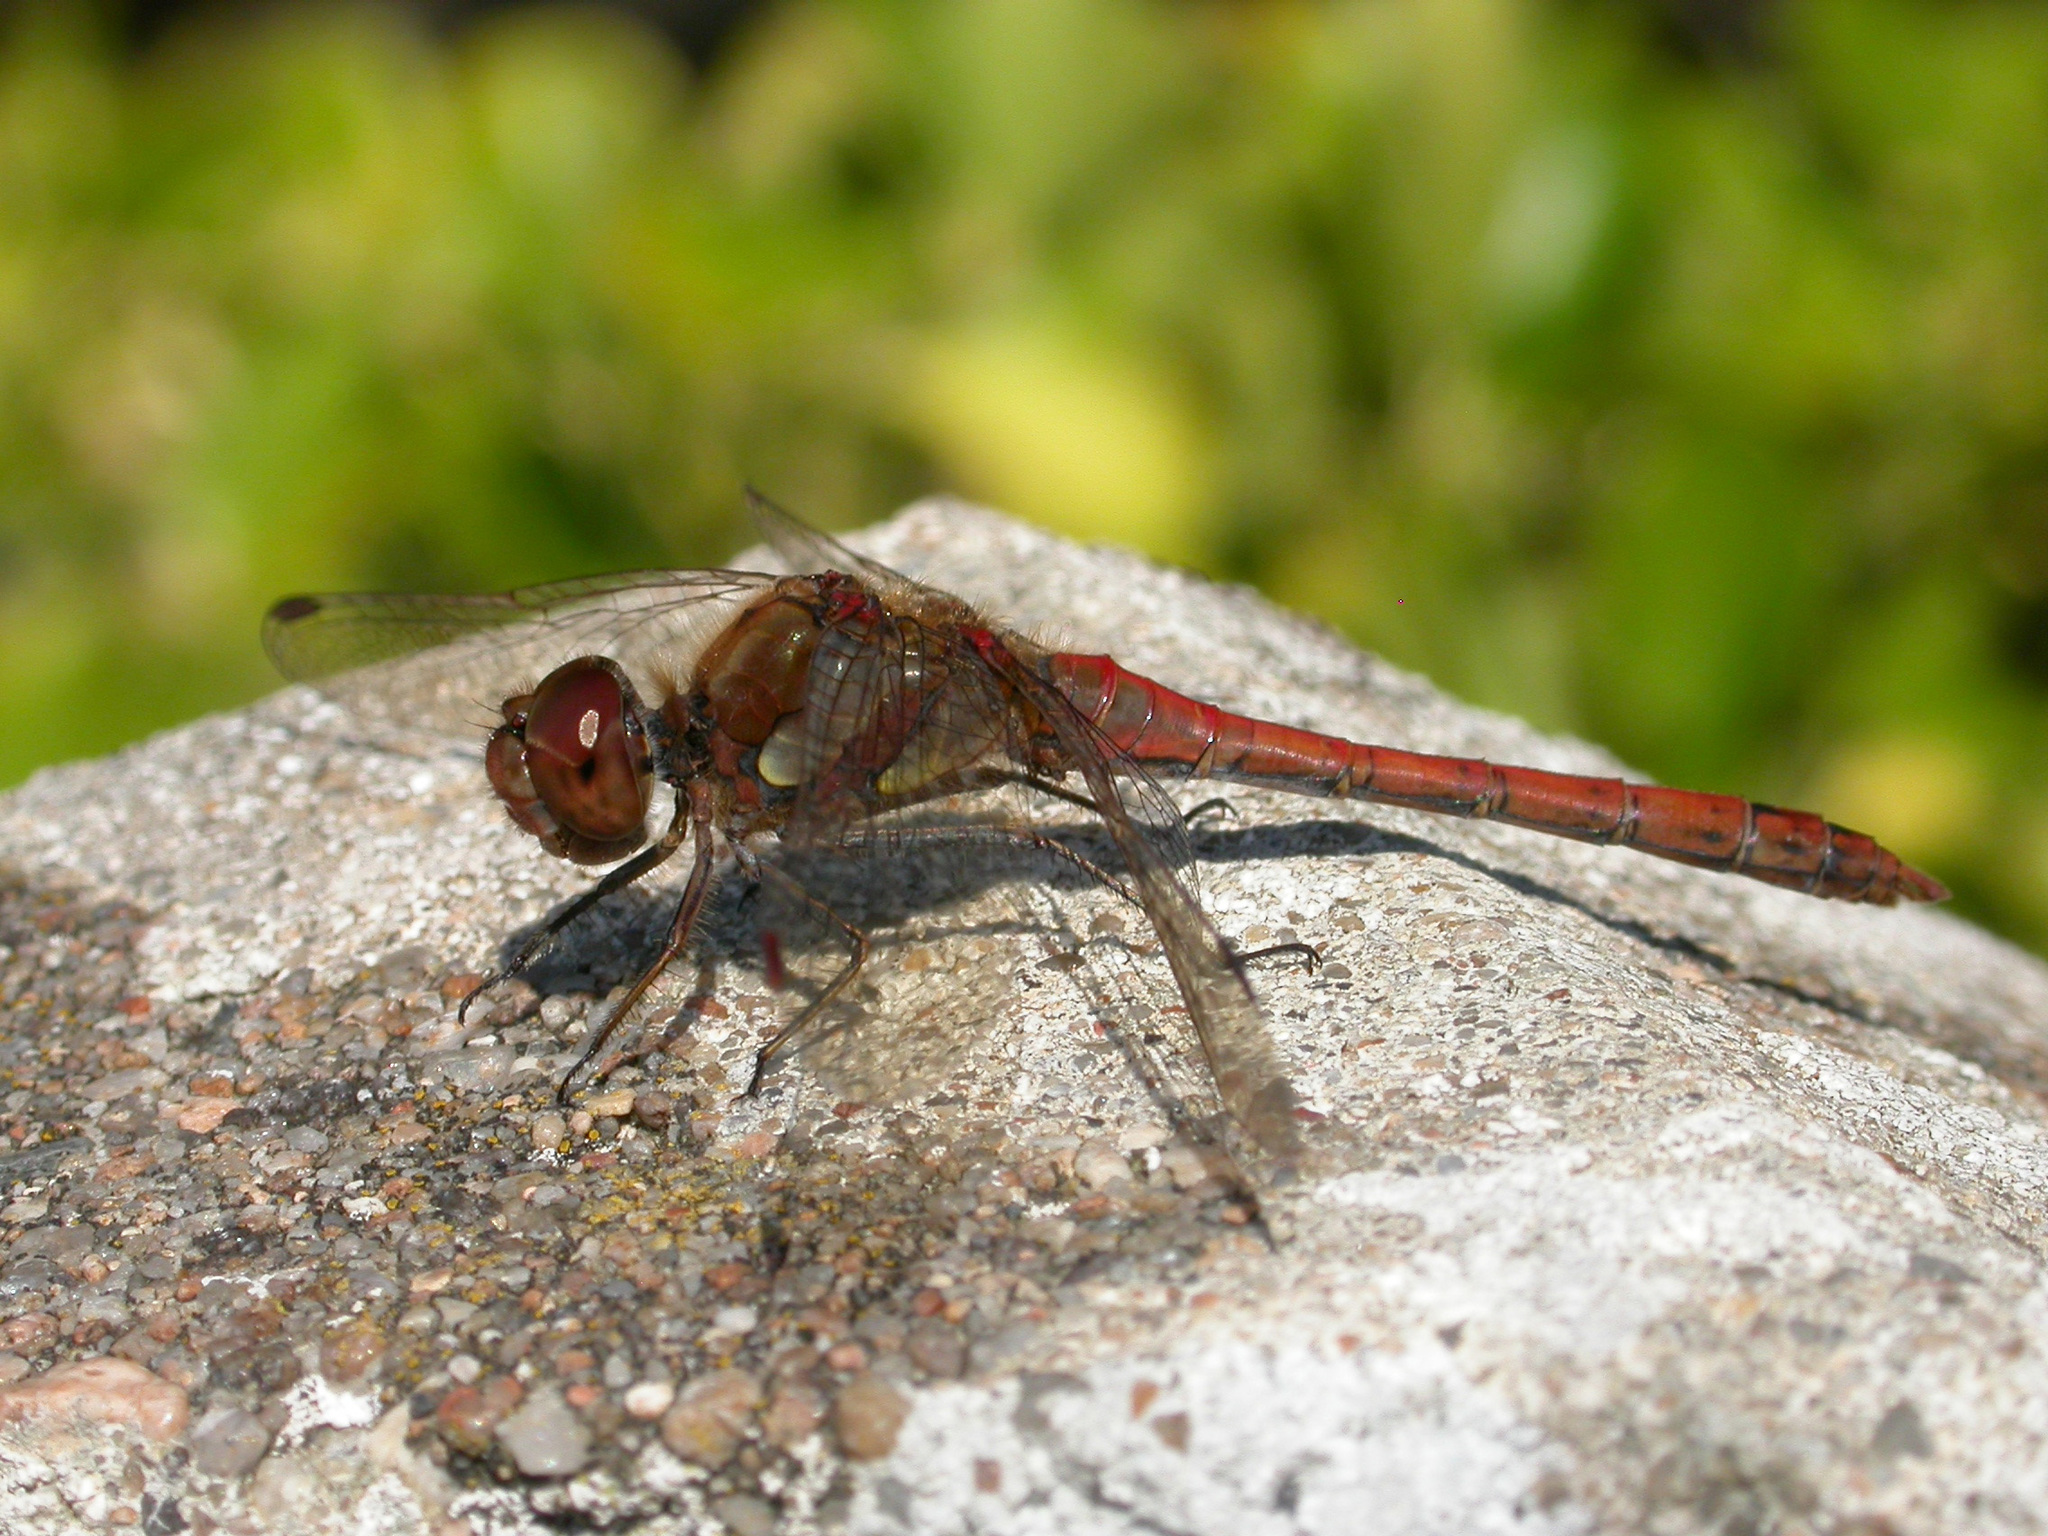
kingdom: Animalia
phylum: Arthropoda
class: Insecta
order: Odonata
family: Libellulidae
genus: Sympetrum
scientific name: Sympetrum striolatum
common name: Common darter
